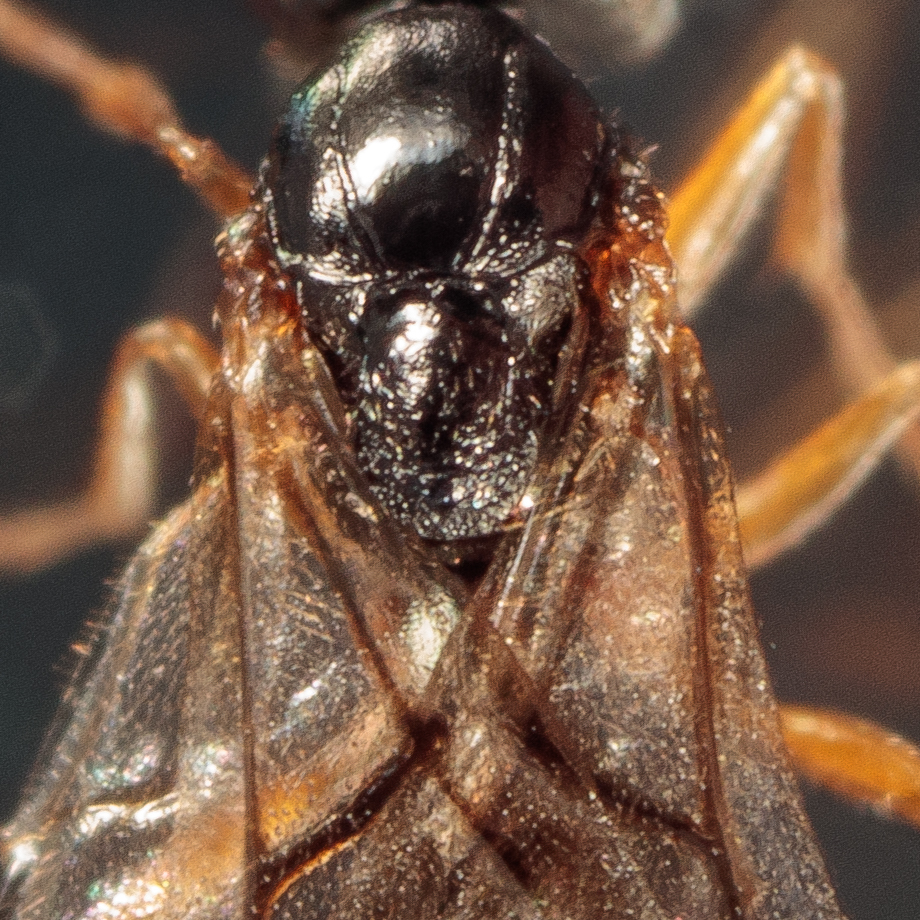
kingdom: Animalia
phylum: Arthropoda
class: Insecta
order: Hymenoptera
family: Cynipidae
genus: Dryocosmus
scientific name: Dryocosmus quercuspalustris
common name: Succulent oak gall wasp
